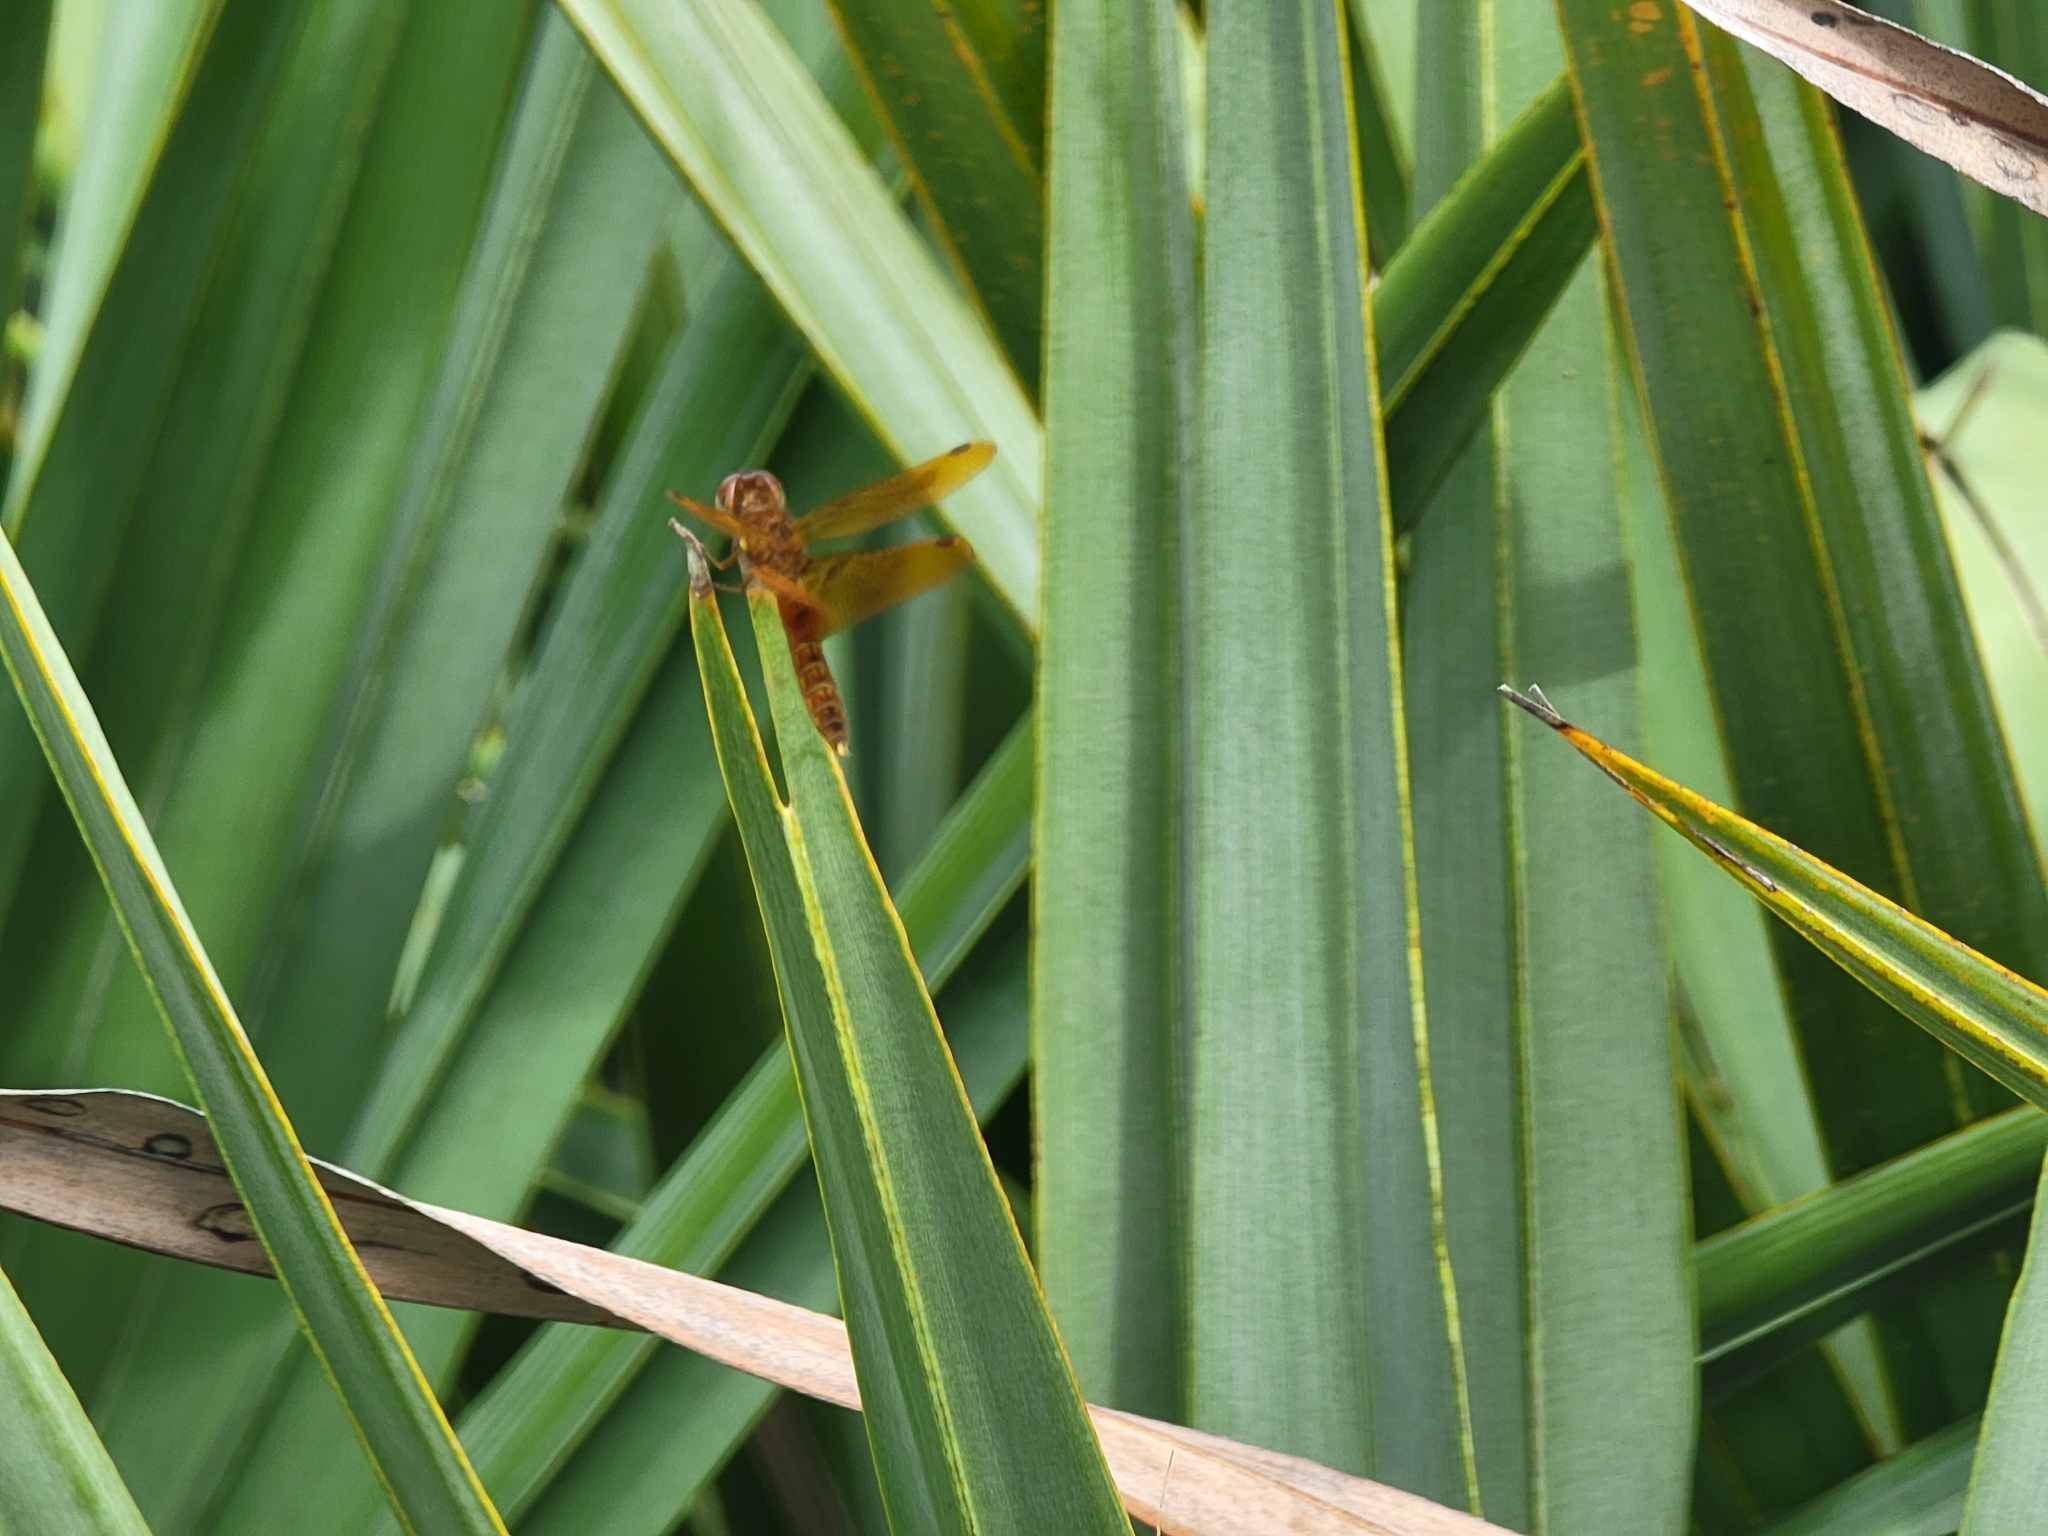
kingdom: Animalia
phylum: Arthropoda
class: Insecta
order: Odonata
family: Libellulidae
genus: Perithemis
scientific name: Perithemis tenera
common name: Eastern amberwing
